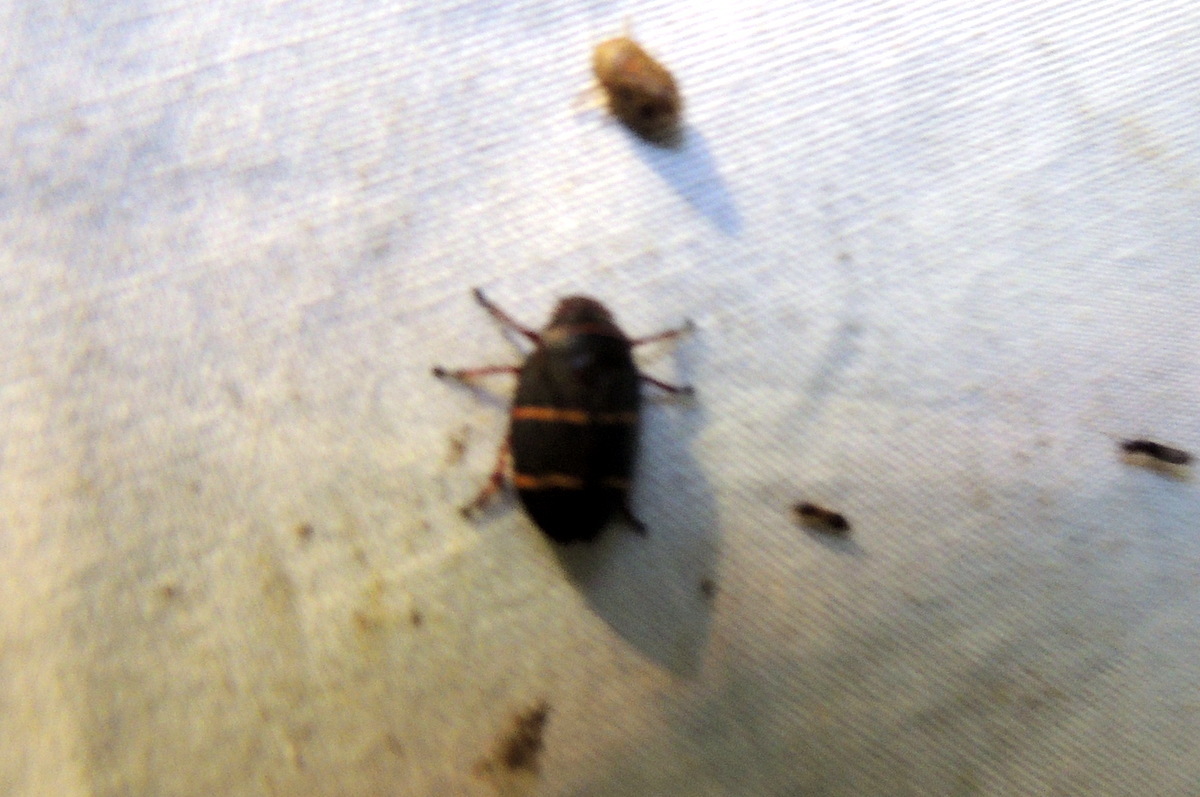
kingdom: Animalia
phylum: Arthropoda
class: Insecta
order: Hemiptera
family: Cercopidae
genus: Prosapia
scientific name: Prosapia bicincta
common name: Twolined spittlebug
